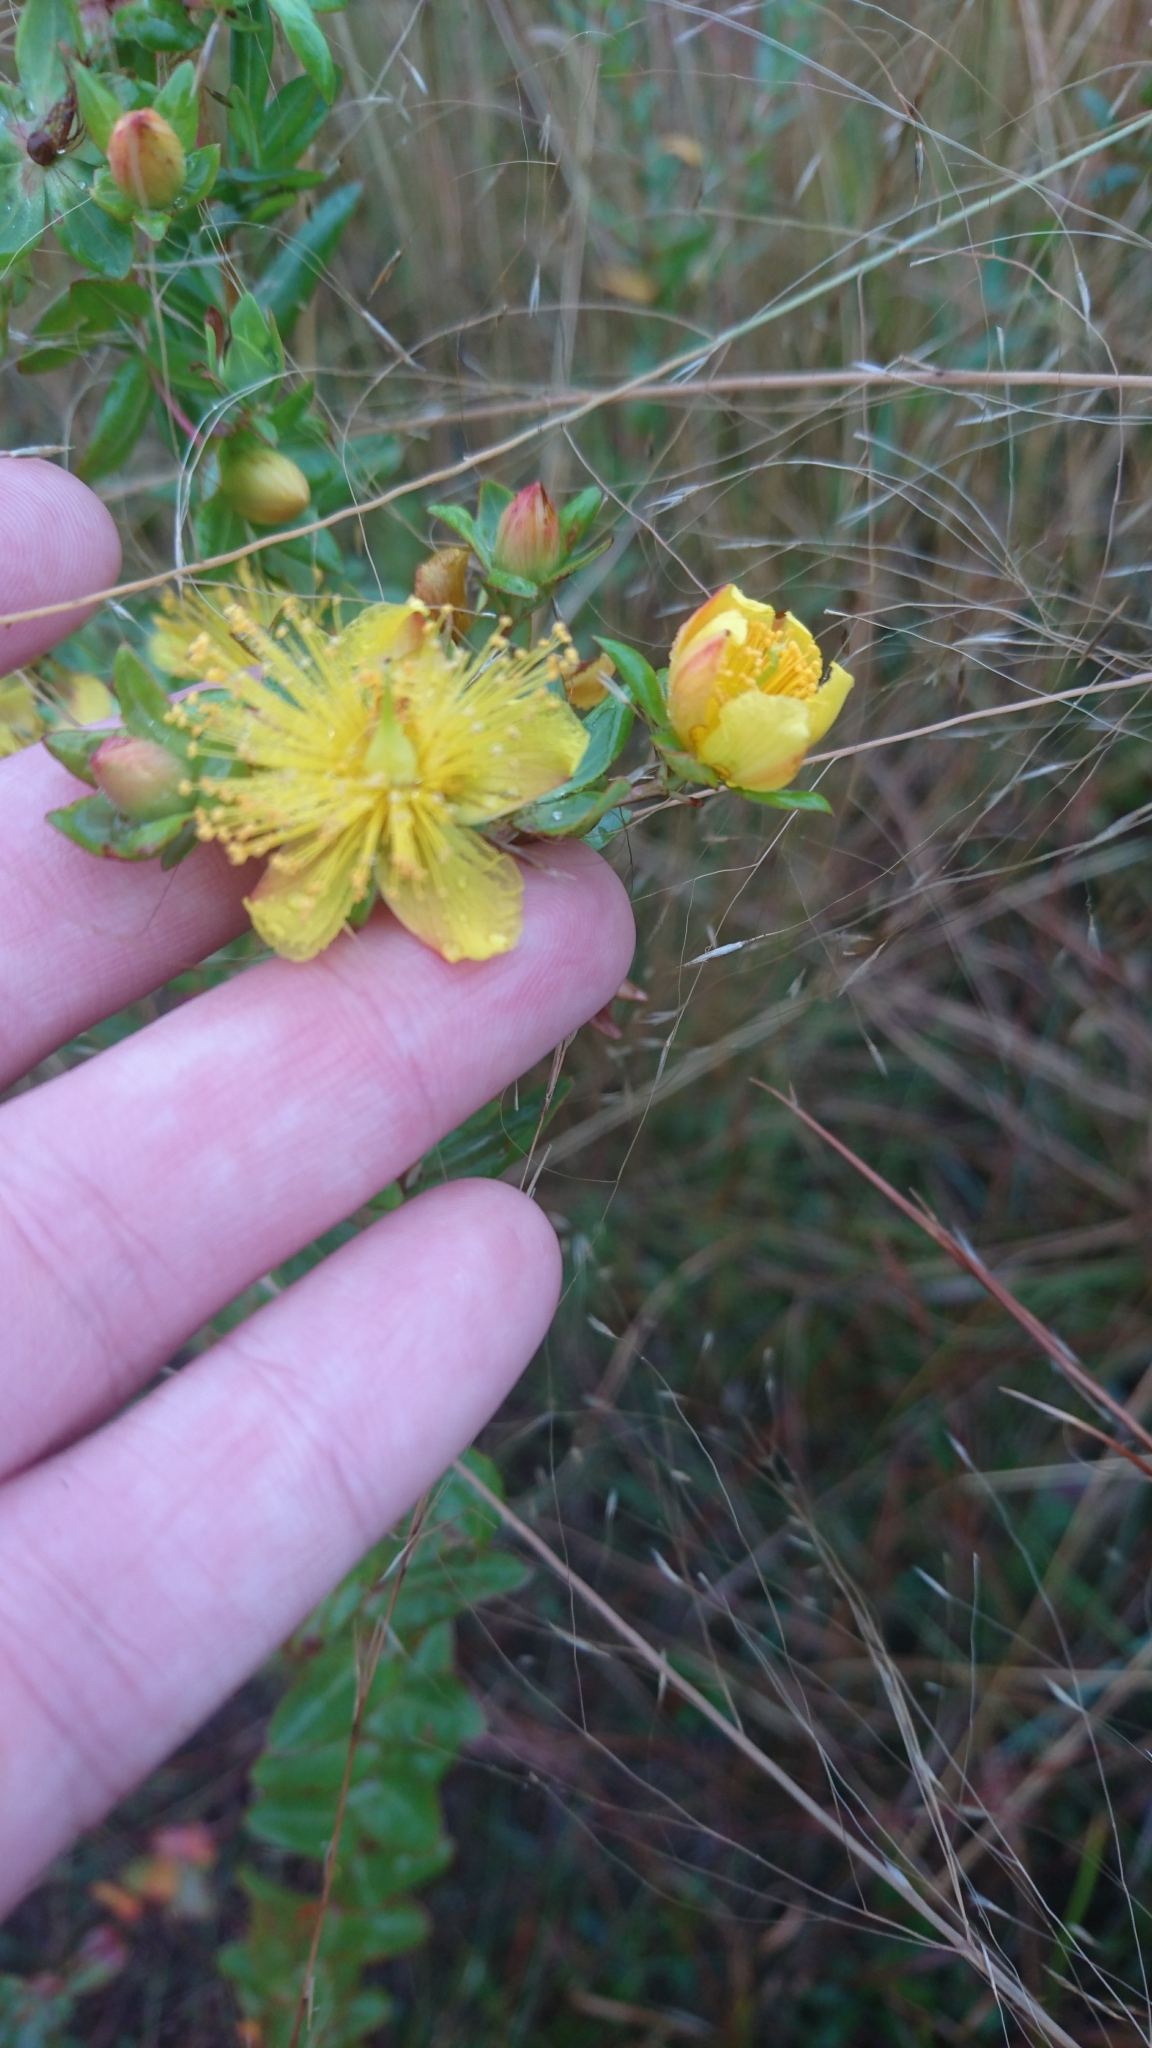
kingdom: Plantae
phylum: Tracheophyta
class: Magnoliopsida
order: Malpighiales
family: Hypericaceae
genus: Hypericum
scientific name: Hypericum myrtifolium
